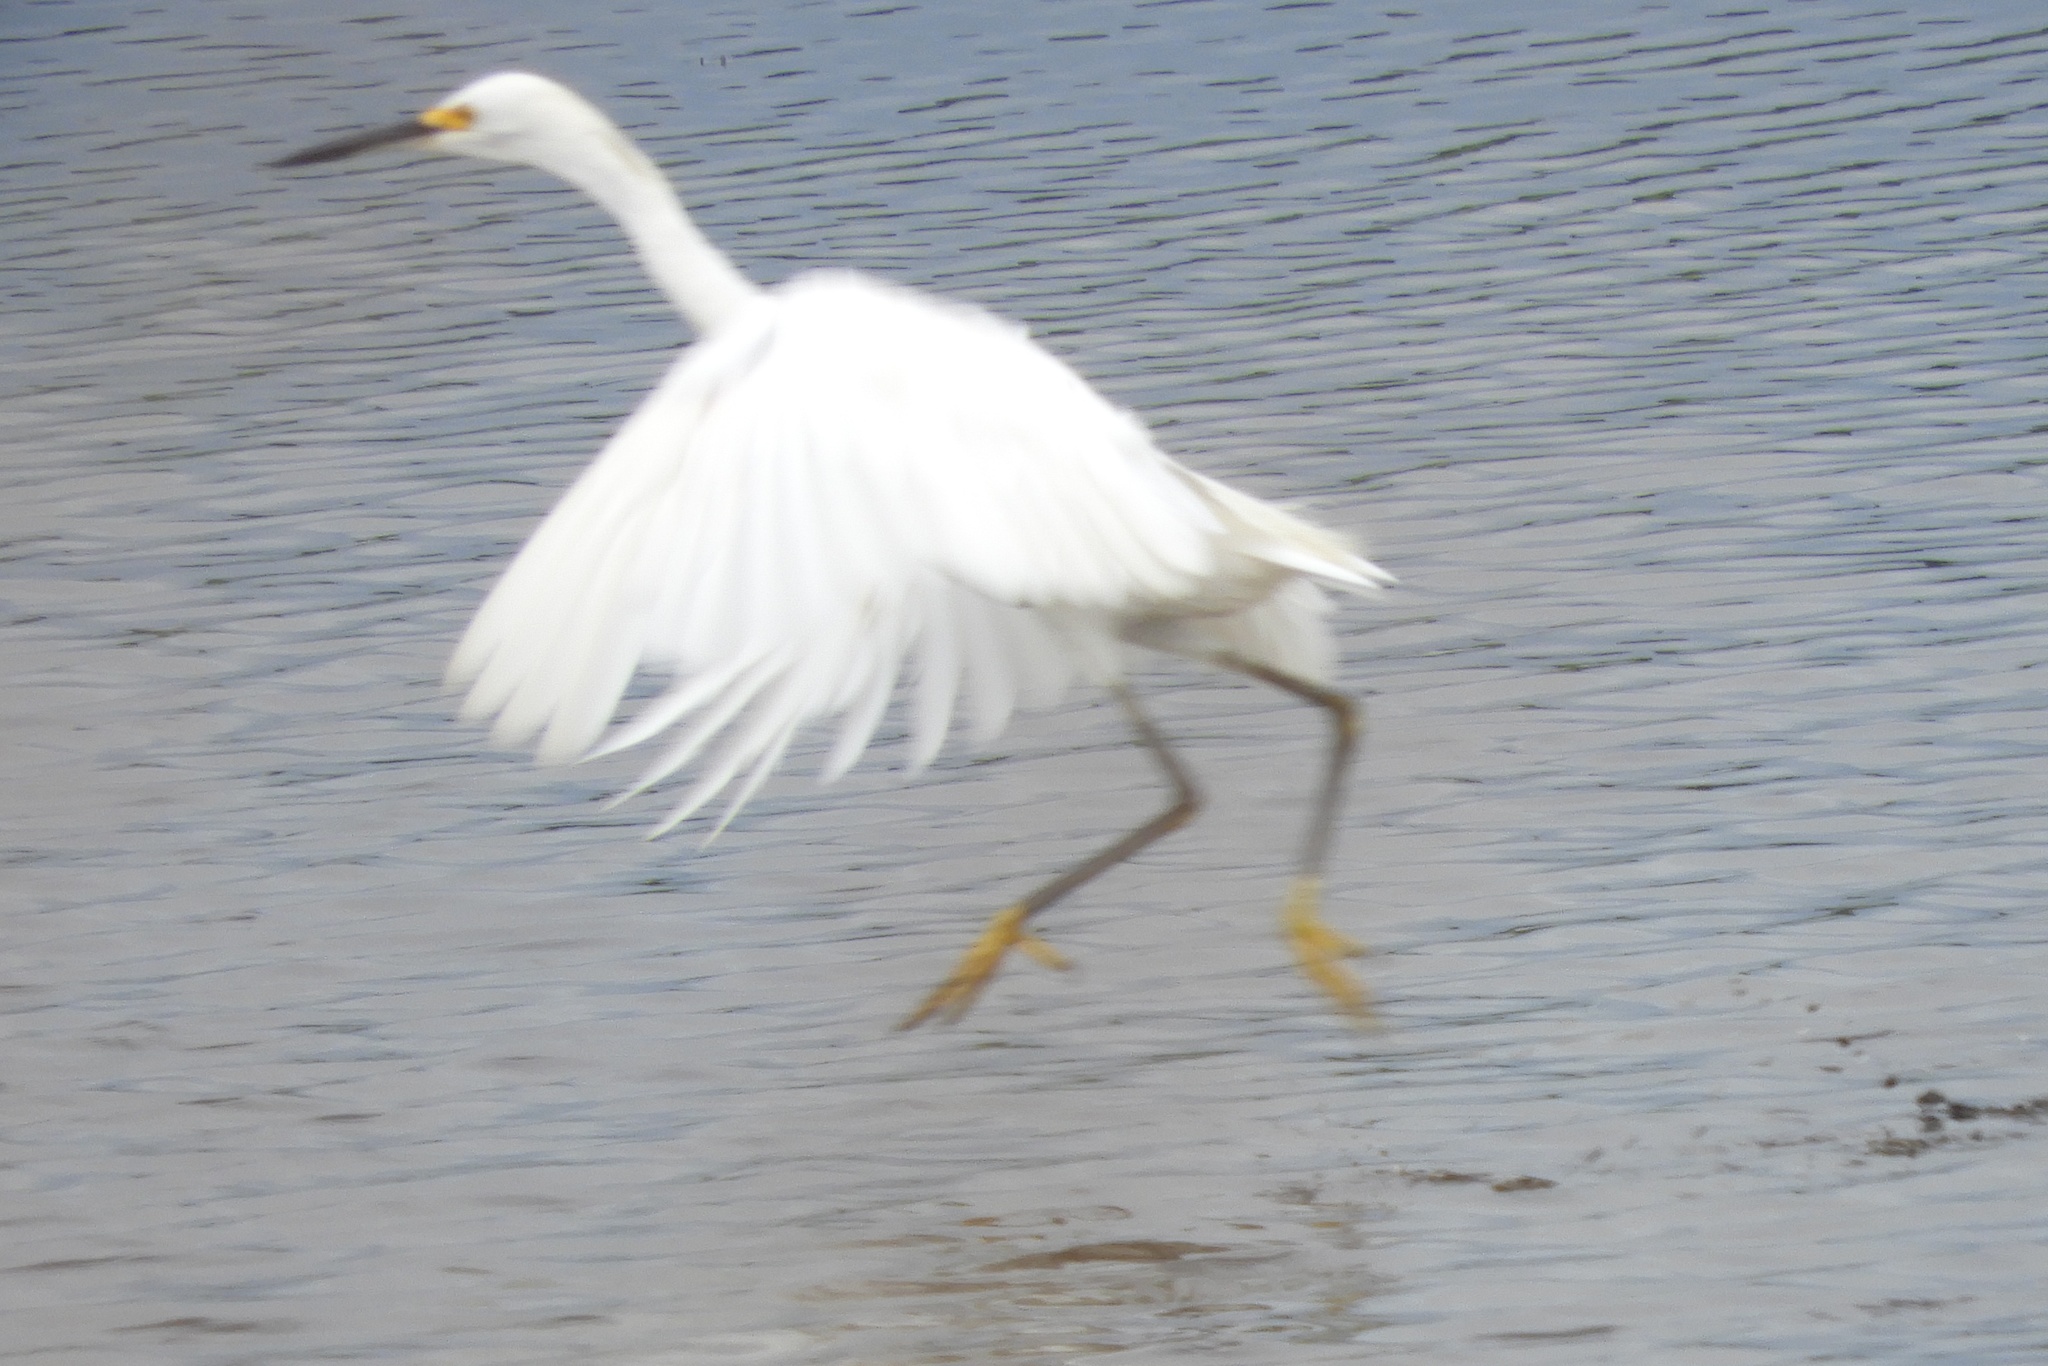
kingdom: Animalia
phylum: Chordata
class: Aves
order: Pelecaniformes
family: Ardeidae
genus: Egretta
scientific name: Egretta thula
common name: Snowy egret
